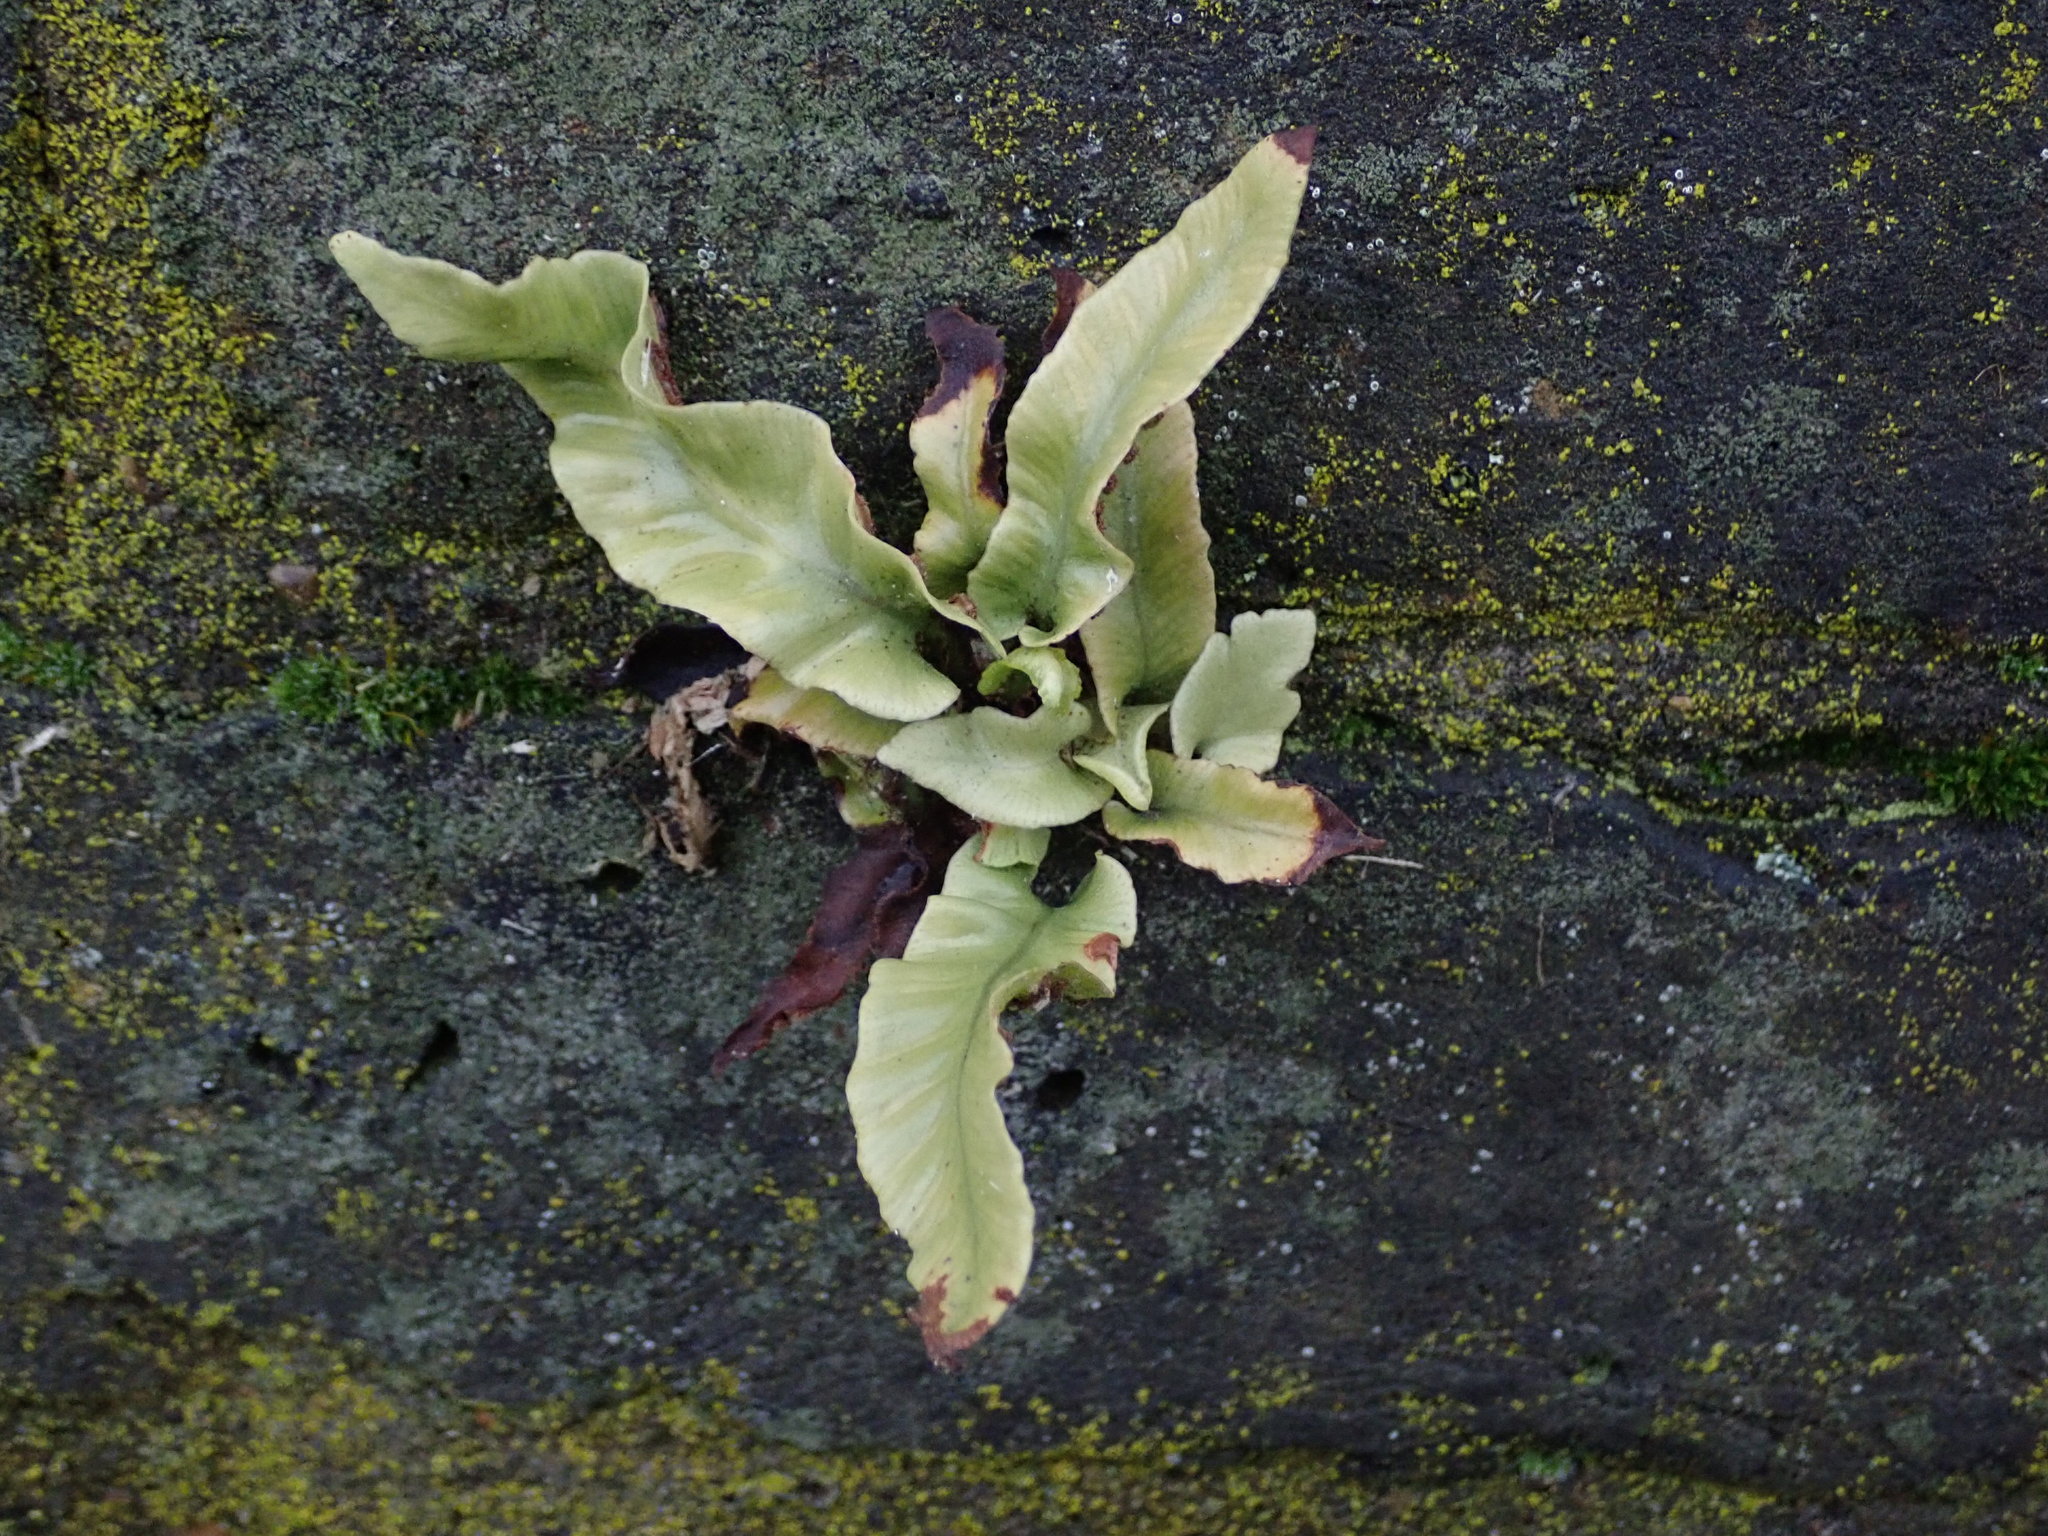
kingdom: Plantae
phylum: Tracheophyta
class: Polypodiopsida
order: Polypodiales
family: Aspleniaceae
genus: Asplenium
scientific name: Asplenium scolopendrium
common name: Hart's-tongue fern
